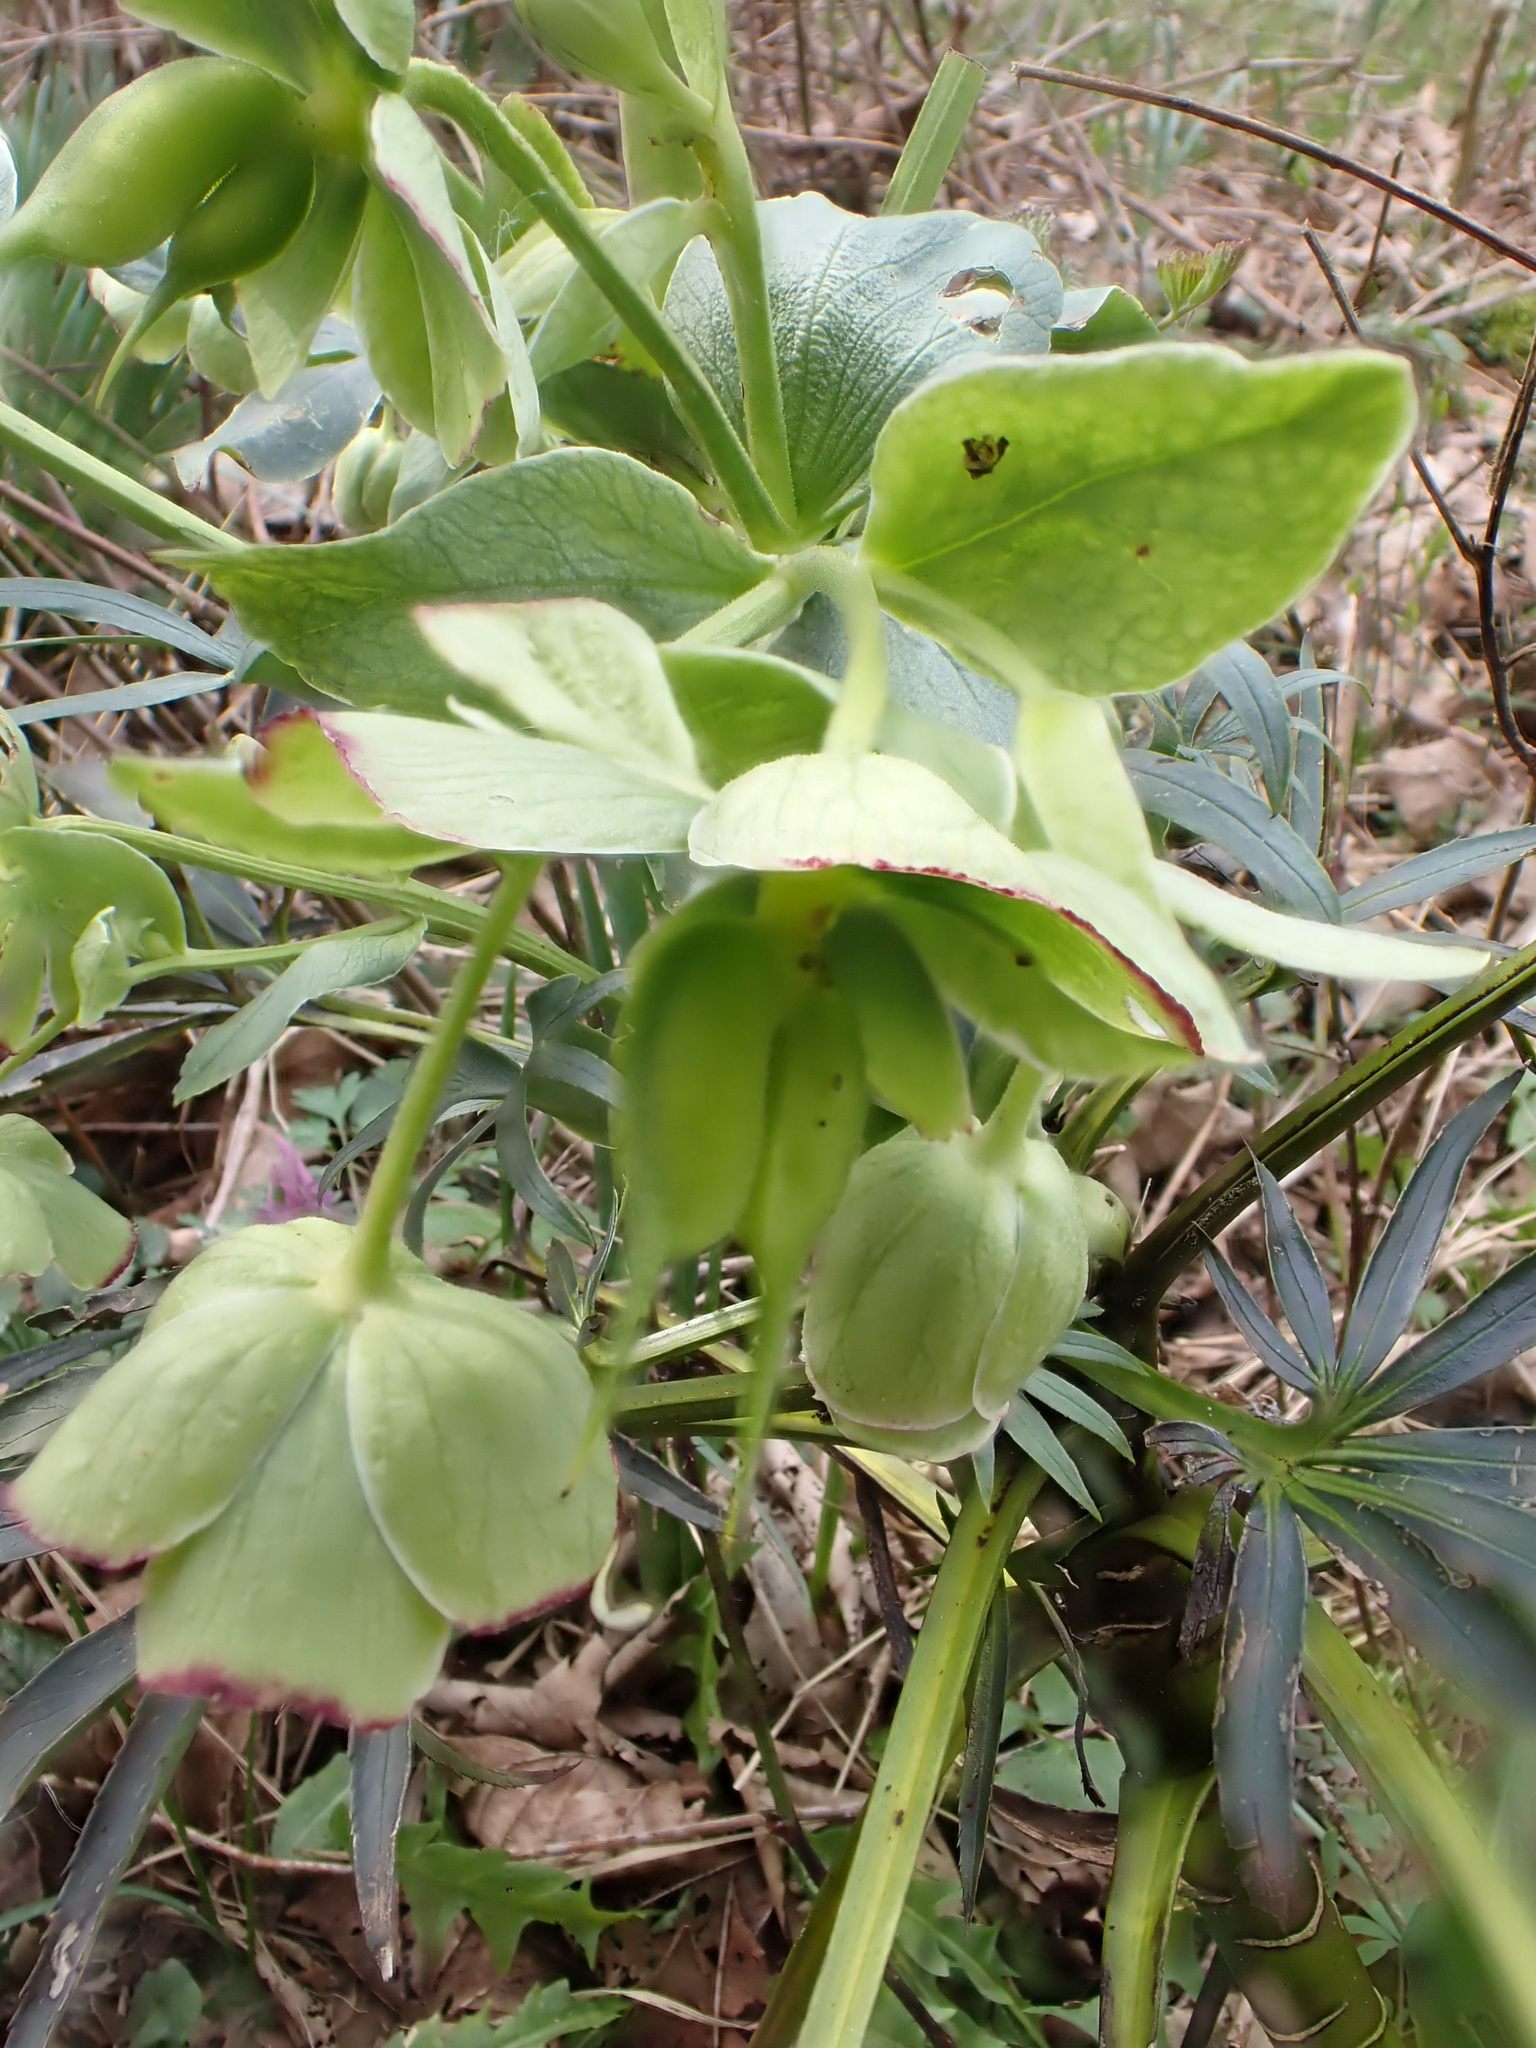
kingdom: Plantae
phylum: Tracheophyta
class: Magnoliopsida
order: Ranunculales
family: Ranunculaceae
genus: Helleborus
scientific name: Helleborus foetidus
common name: Stinking hellebore
